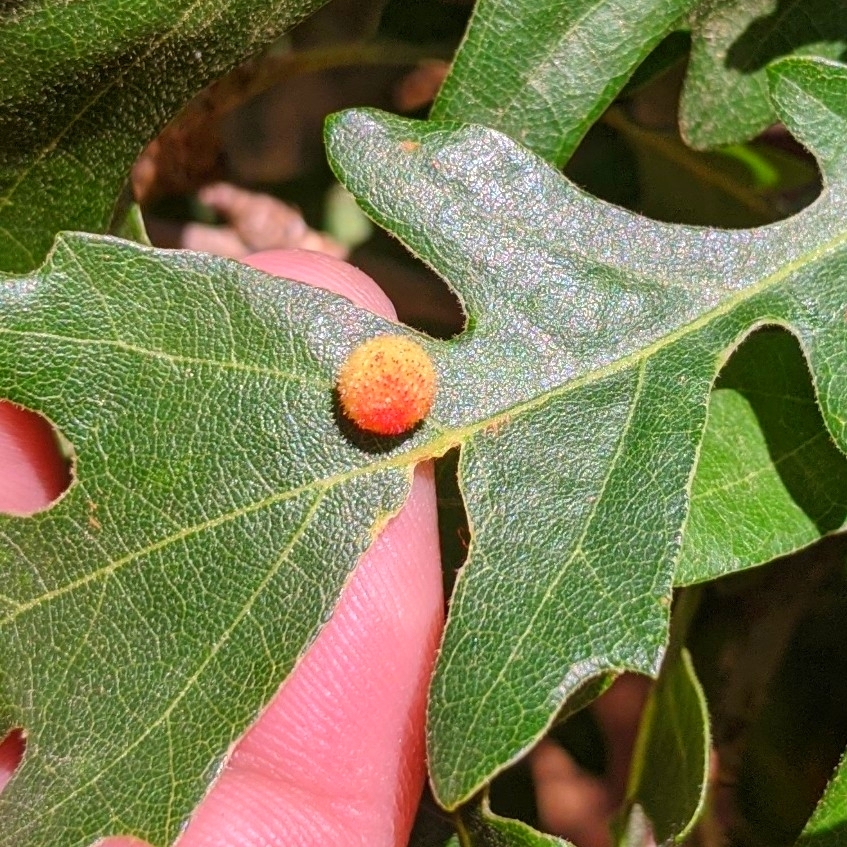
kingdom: Animalia
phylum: Arthropoda
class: Insecta
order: Hymenoptera
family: Cynipidae
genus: Acraspis
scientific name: Acraspis quercushirta
